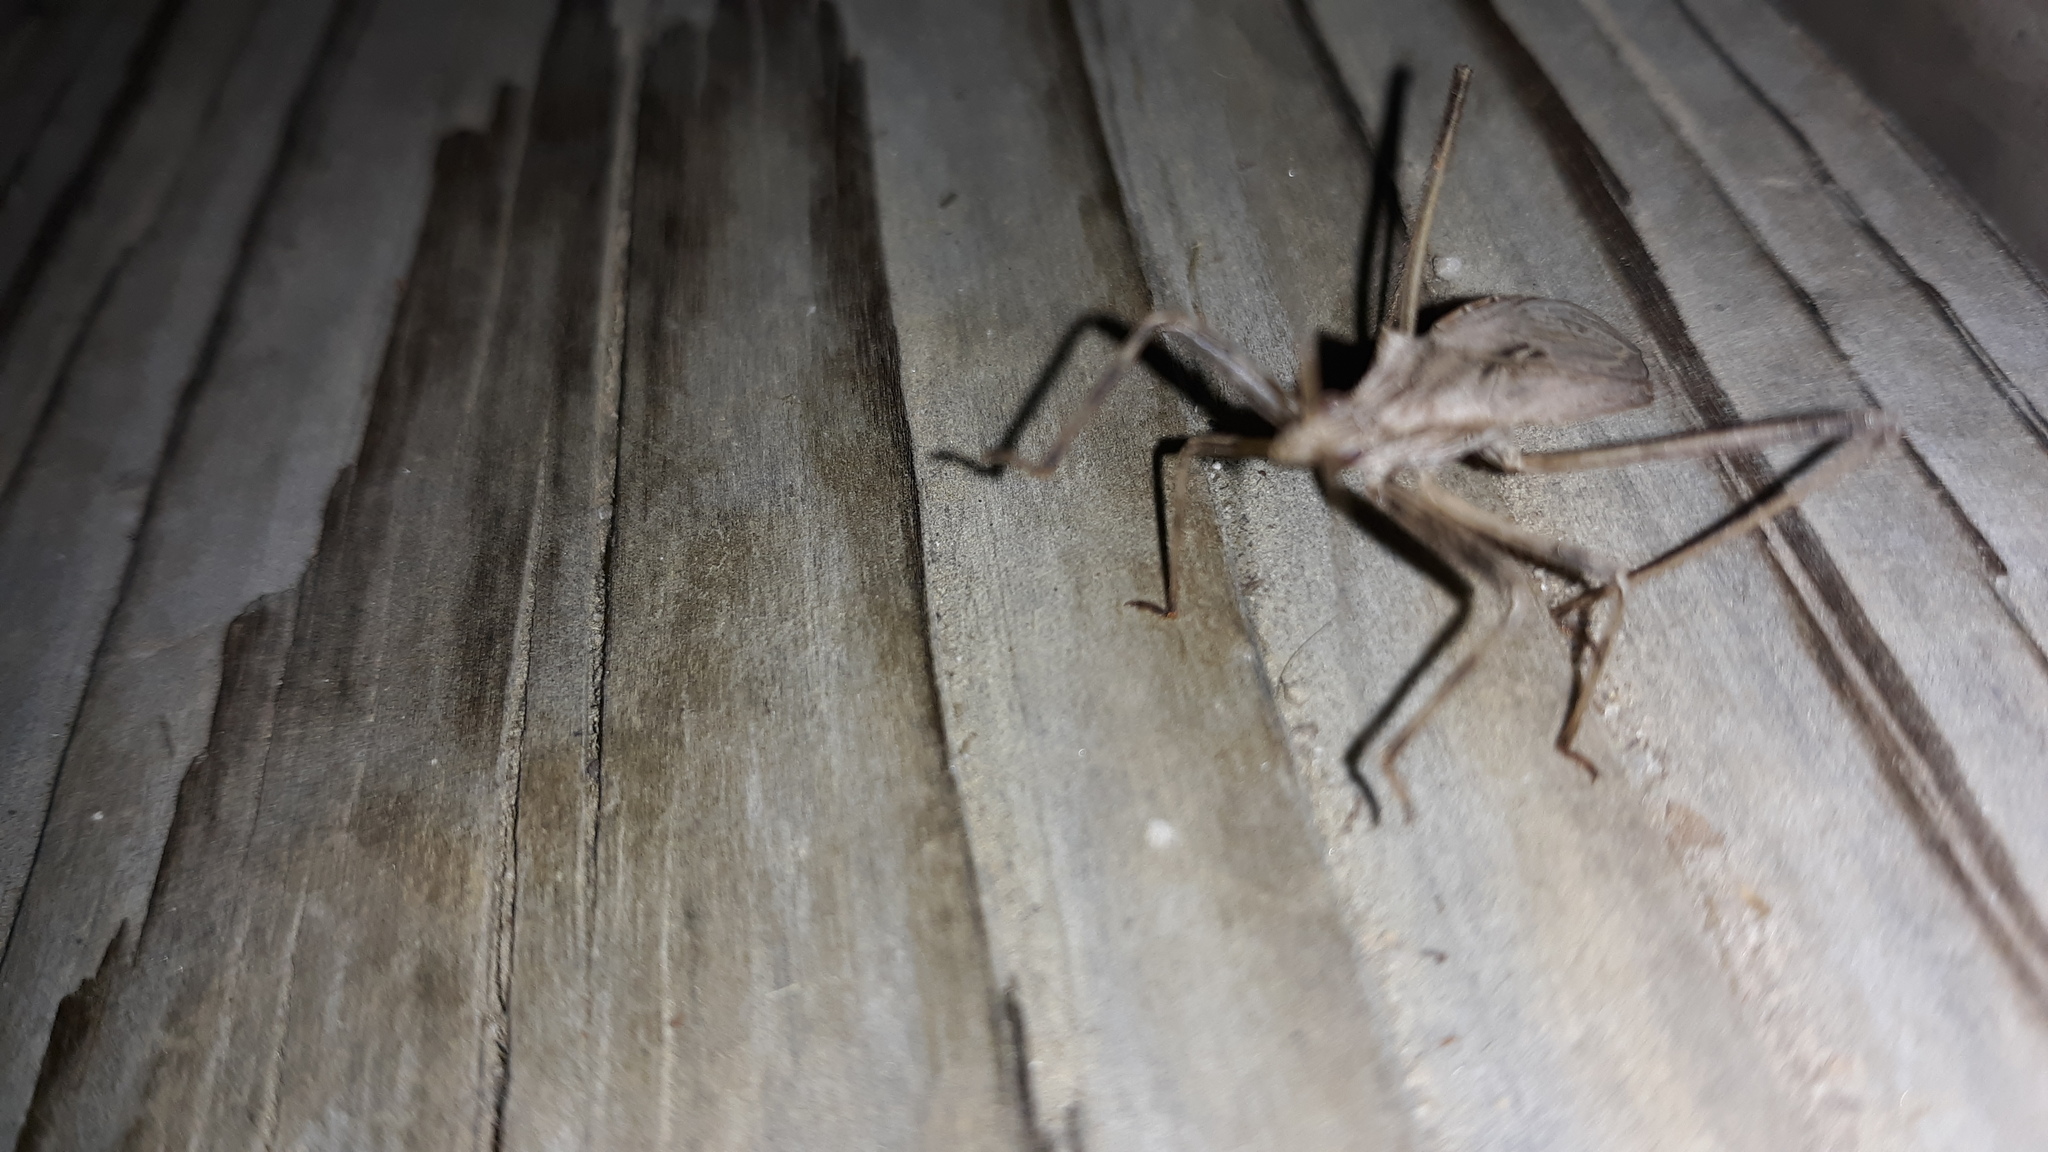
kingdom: Animalia
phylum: Arthropoda
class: Insecta
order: Hemiptera
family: Reduviidae
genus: Stenopoda
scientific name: Stenopoda spinulosa
